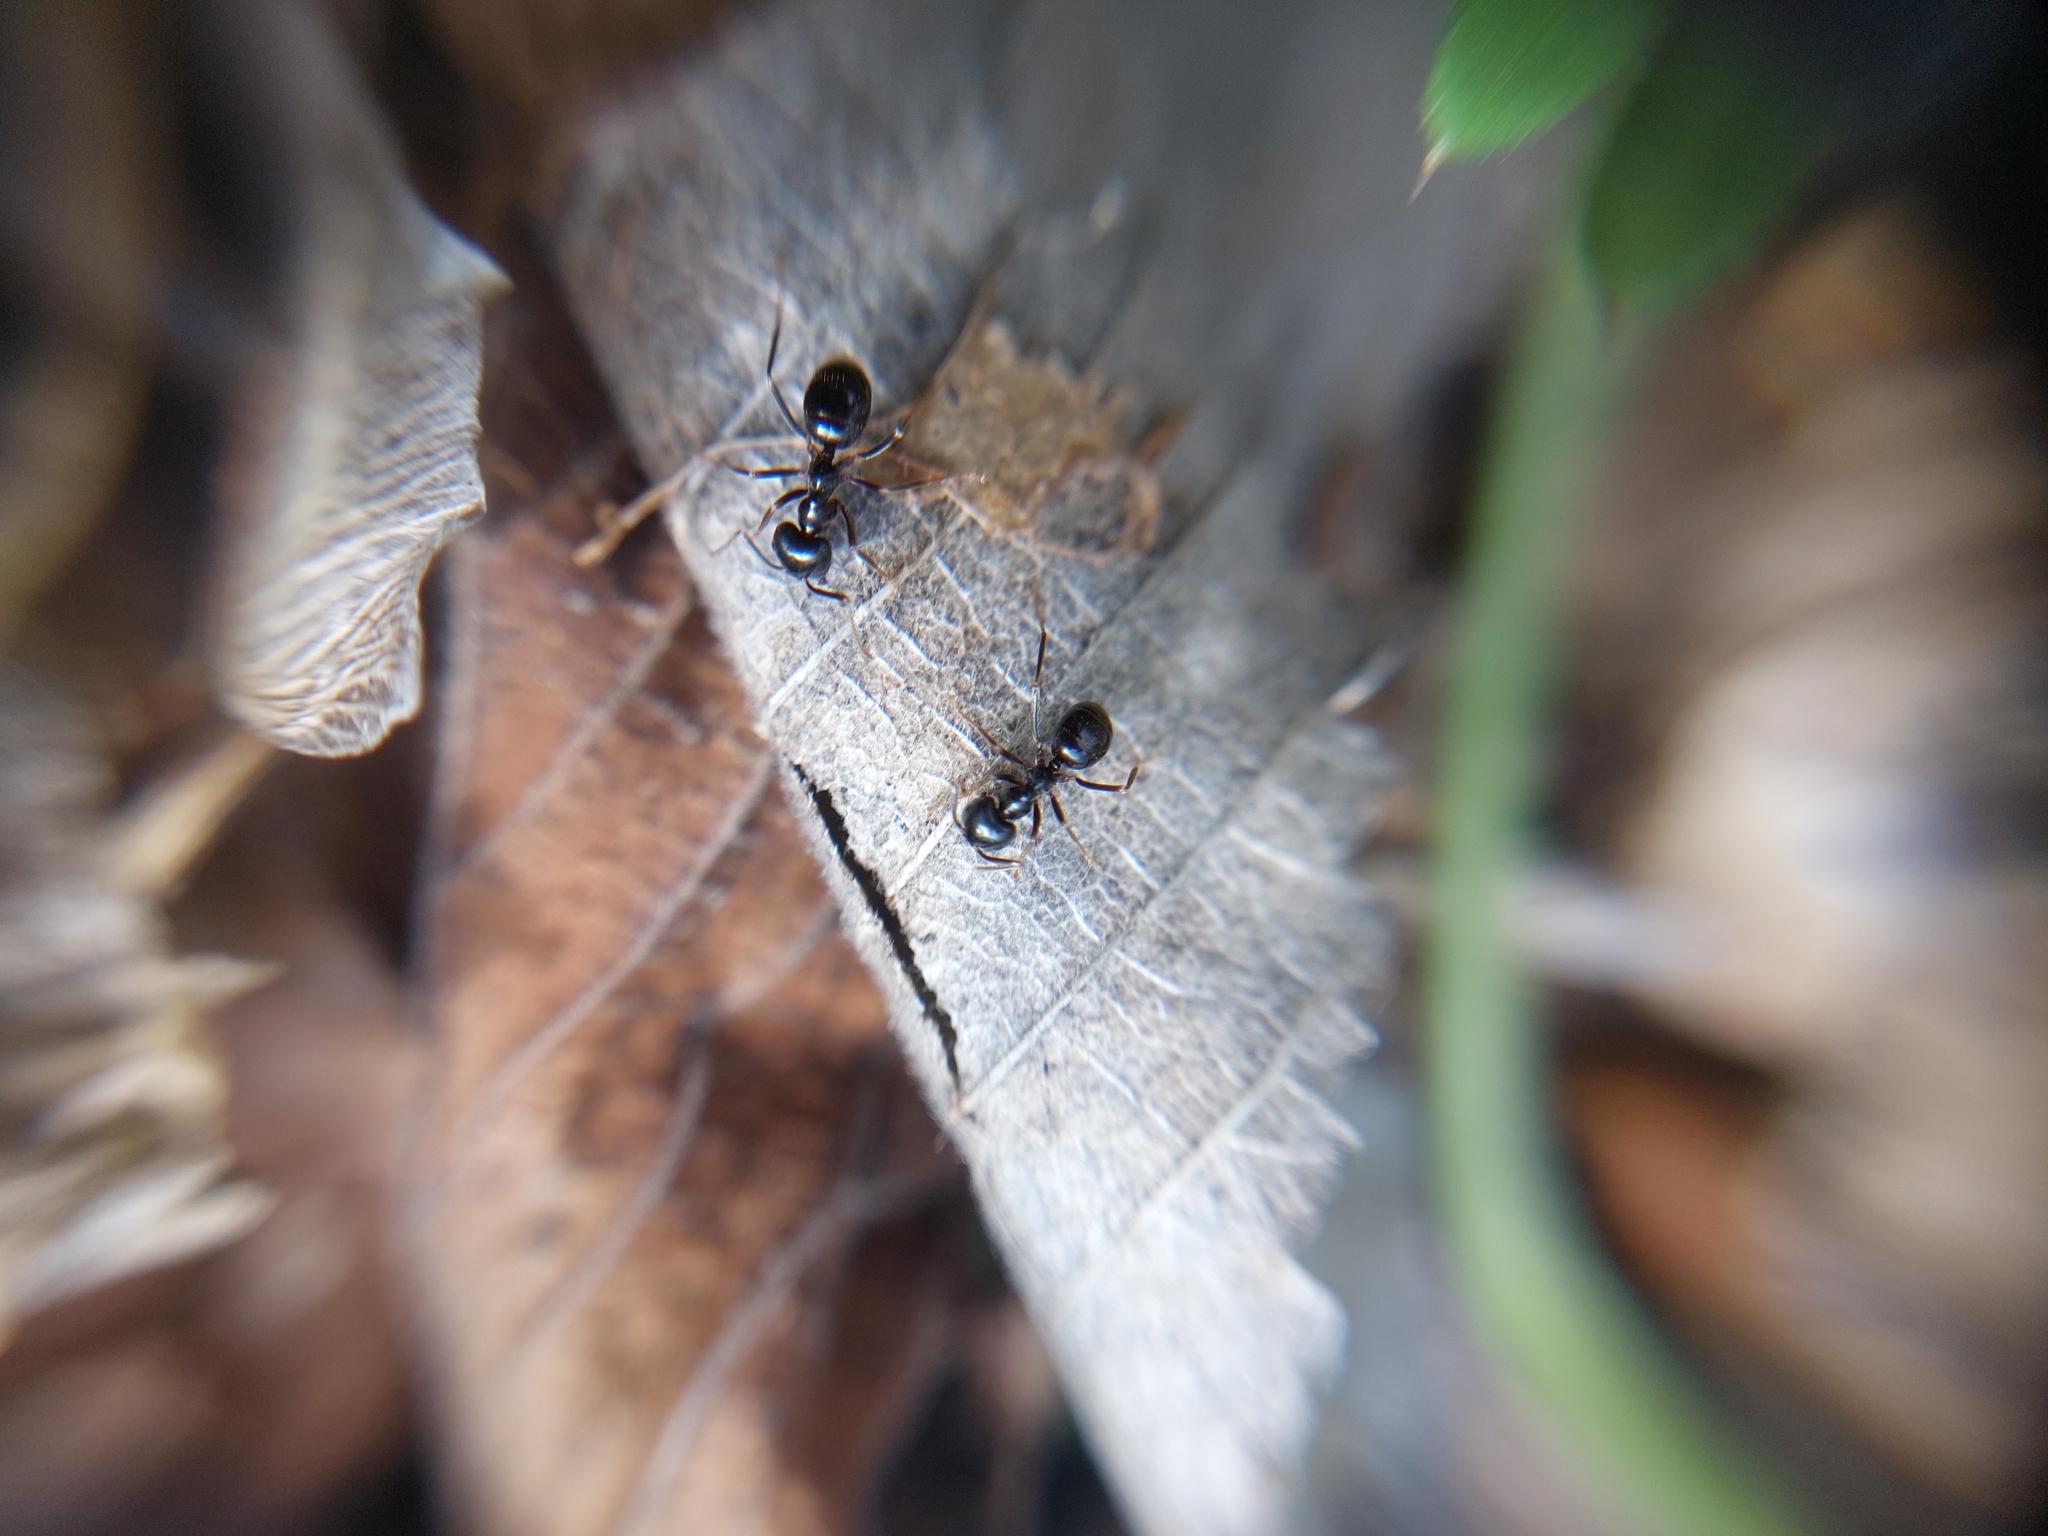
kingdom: Animalia
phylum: Arthropoda
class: Insecta
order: Hymenoptera
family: Formicidae
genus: Lasius
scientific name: Lasius fuliginosus
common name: Jet ant
